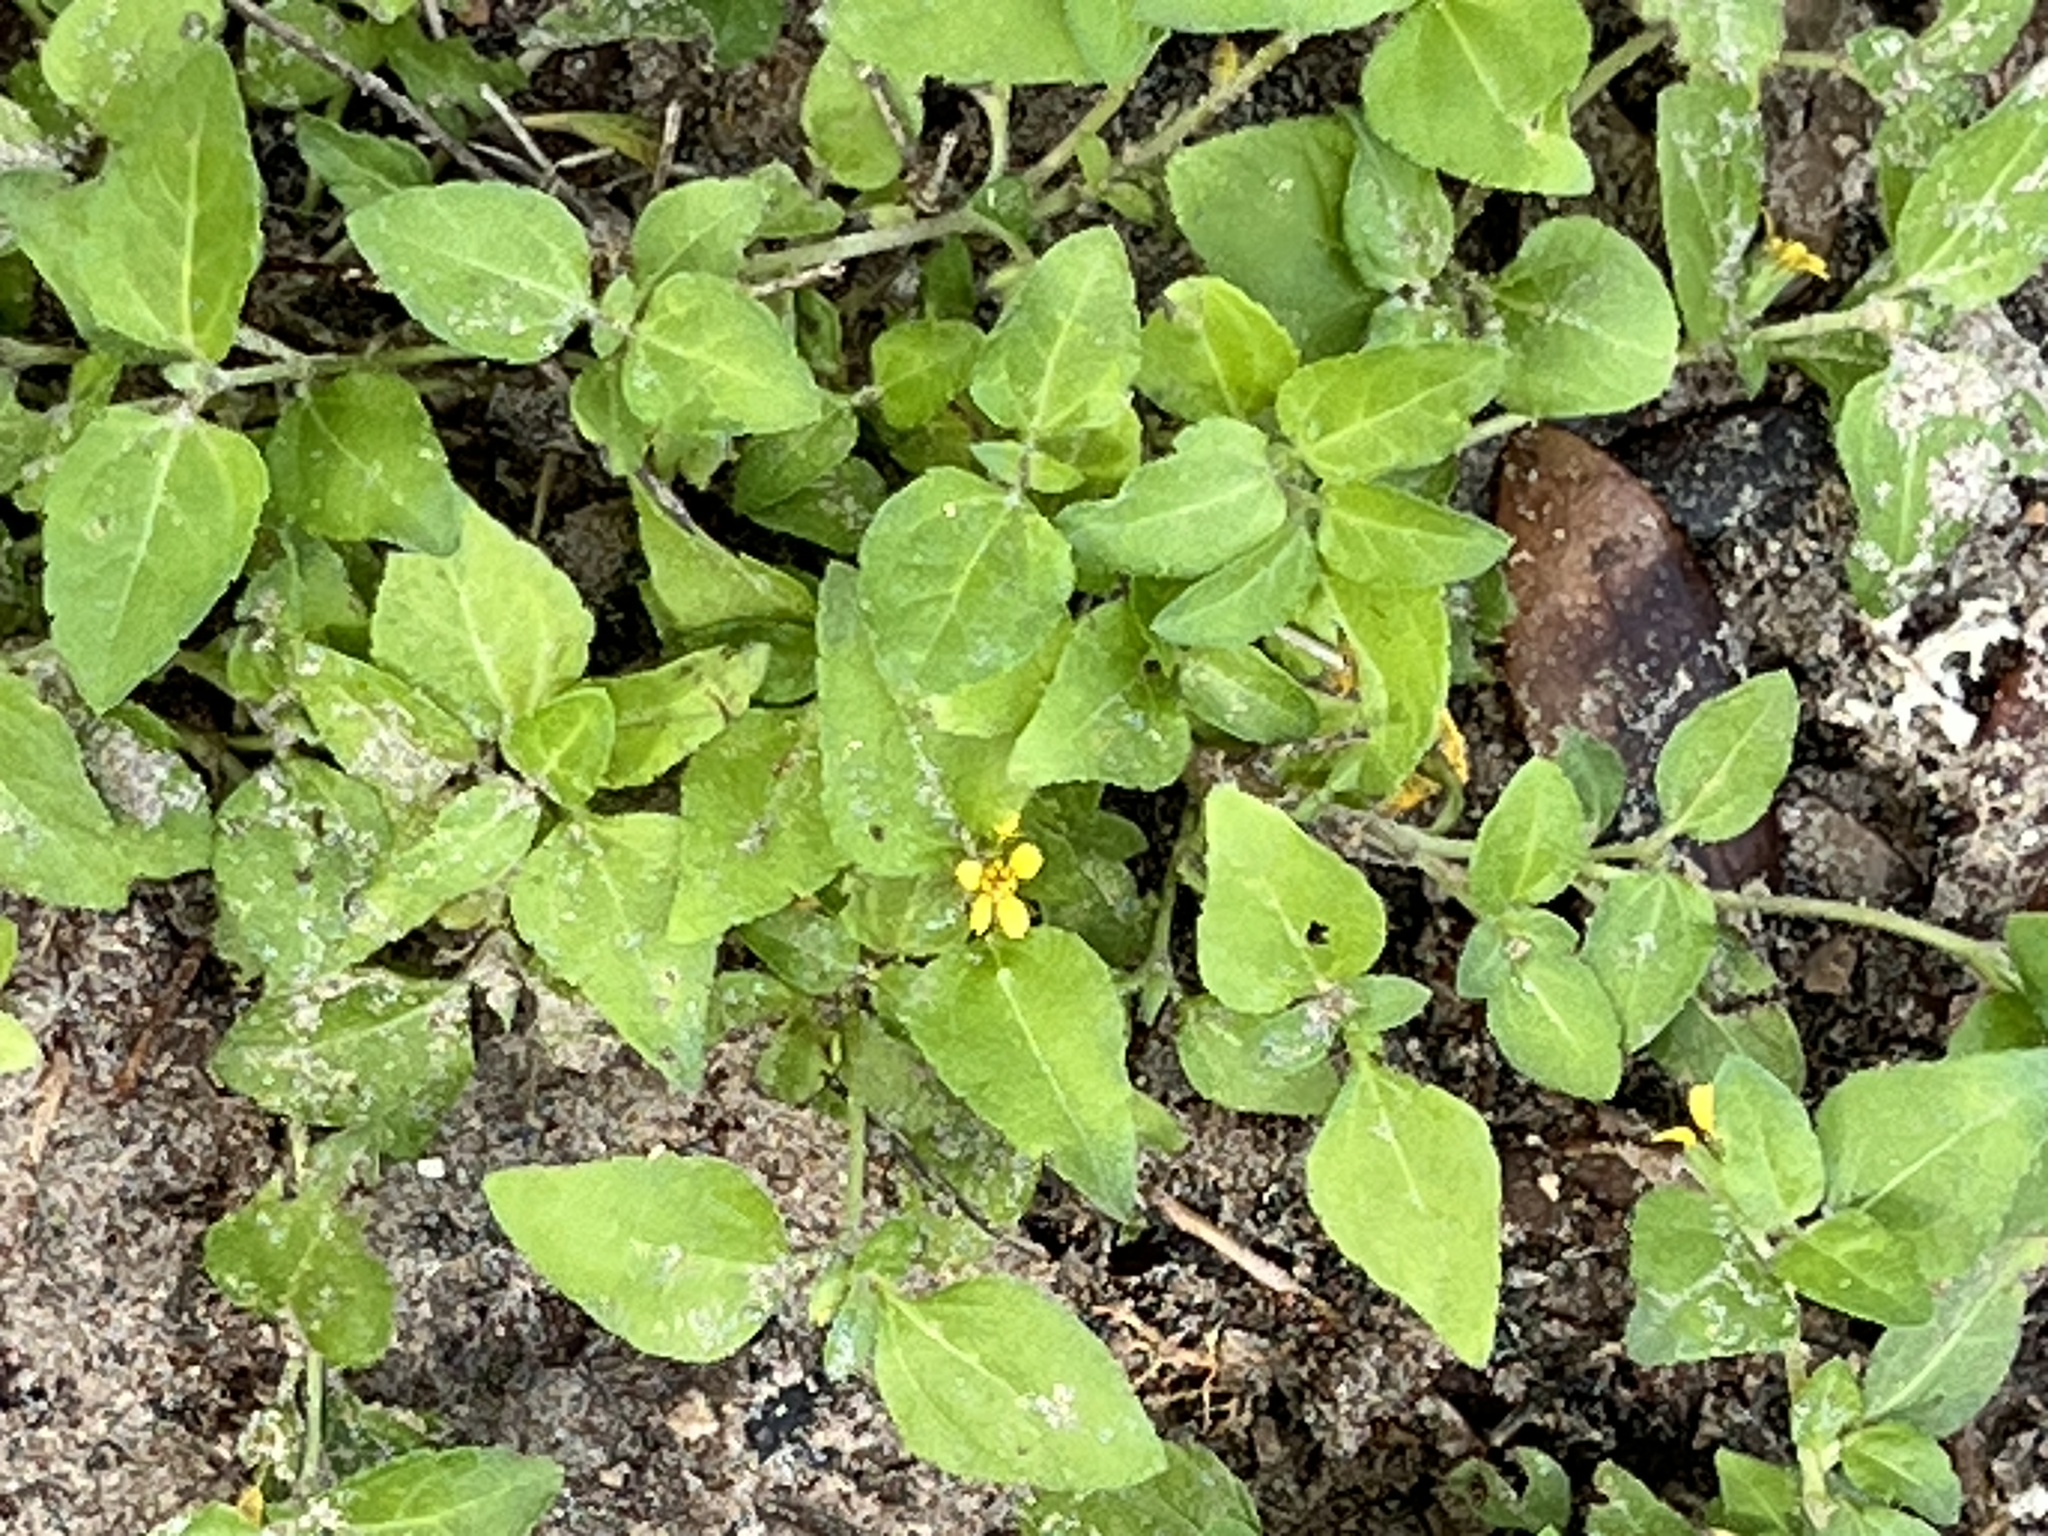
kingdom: Plantae
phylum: Tracheophyta
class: Magnoliopsida
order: Asterales
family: Asteraceae
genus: Calyptocarpus
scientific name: Calyptocarpus vialis
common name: Straggler daisy
